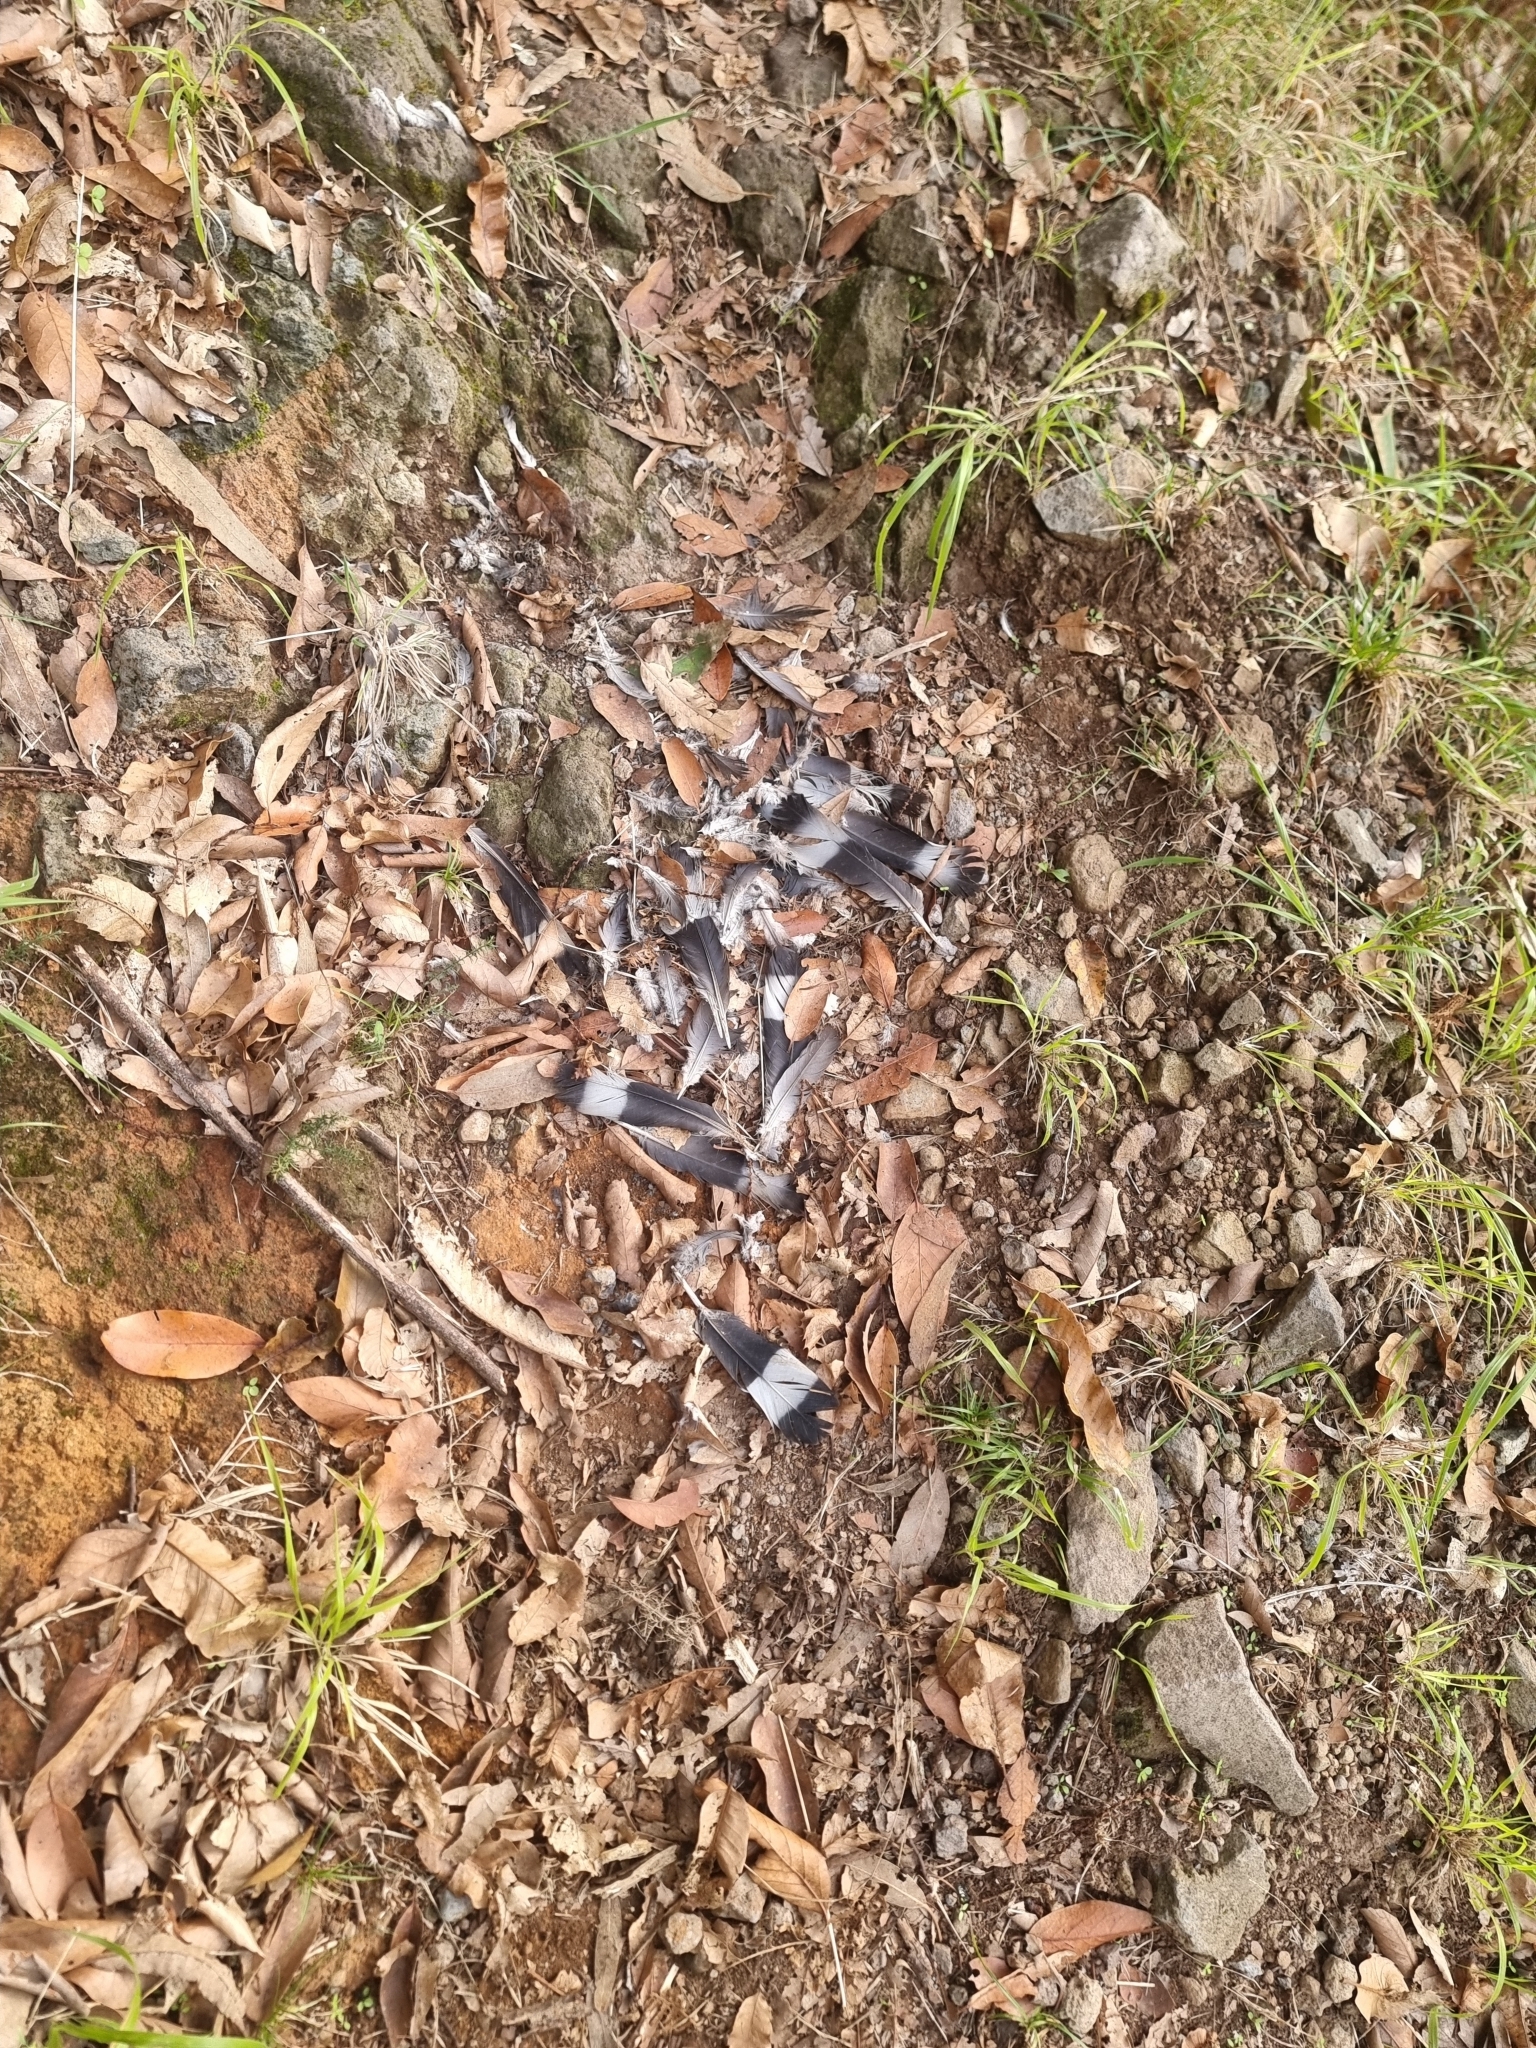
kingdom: Animalia
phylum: Chordata
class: Aves
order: Columbiformes
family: Columbidae
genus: Columba
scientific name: Columba trocaz
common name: Trocaz pigeon
